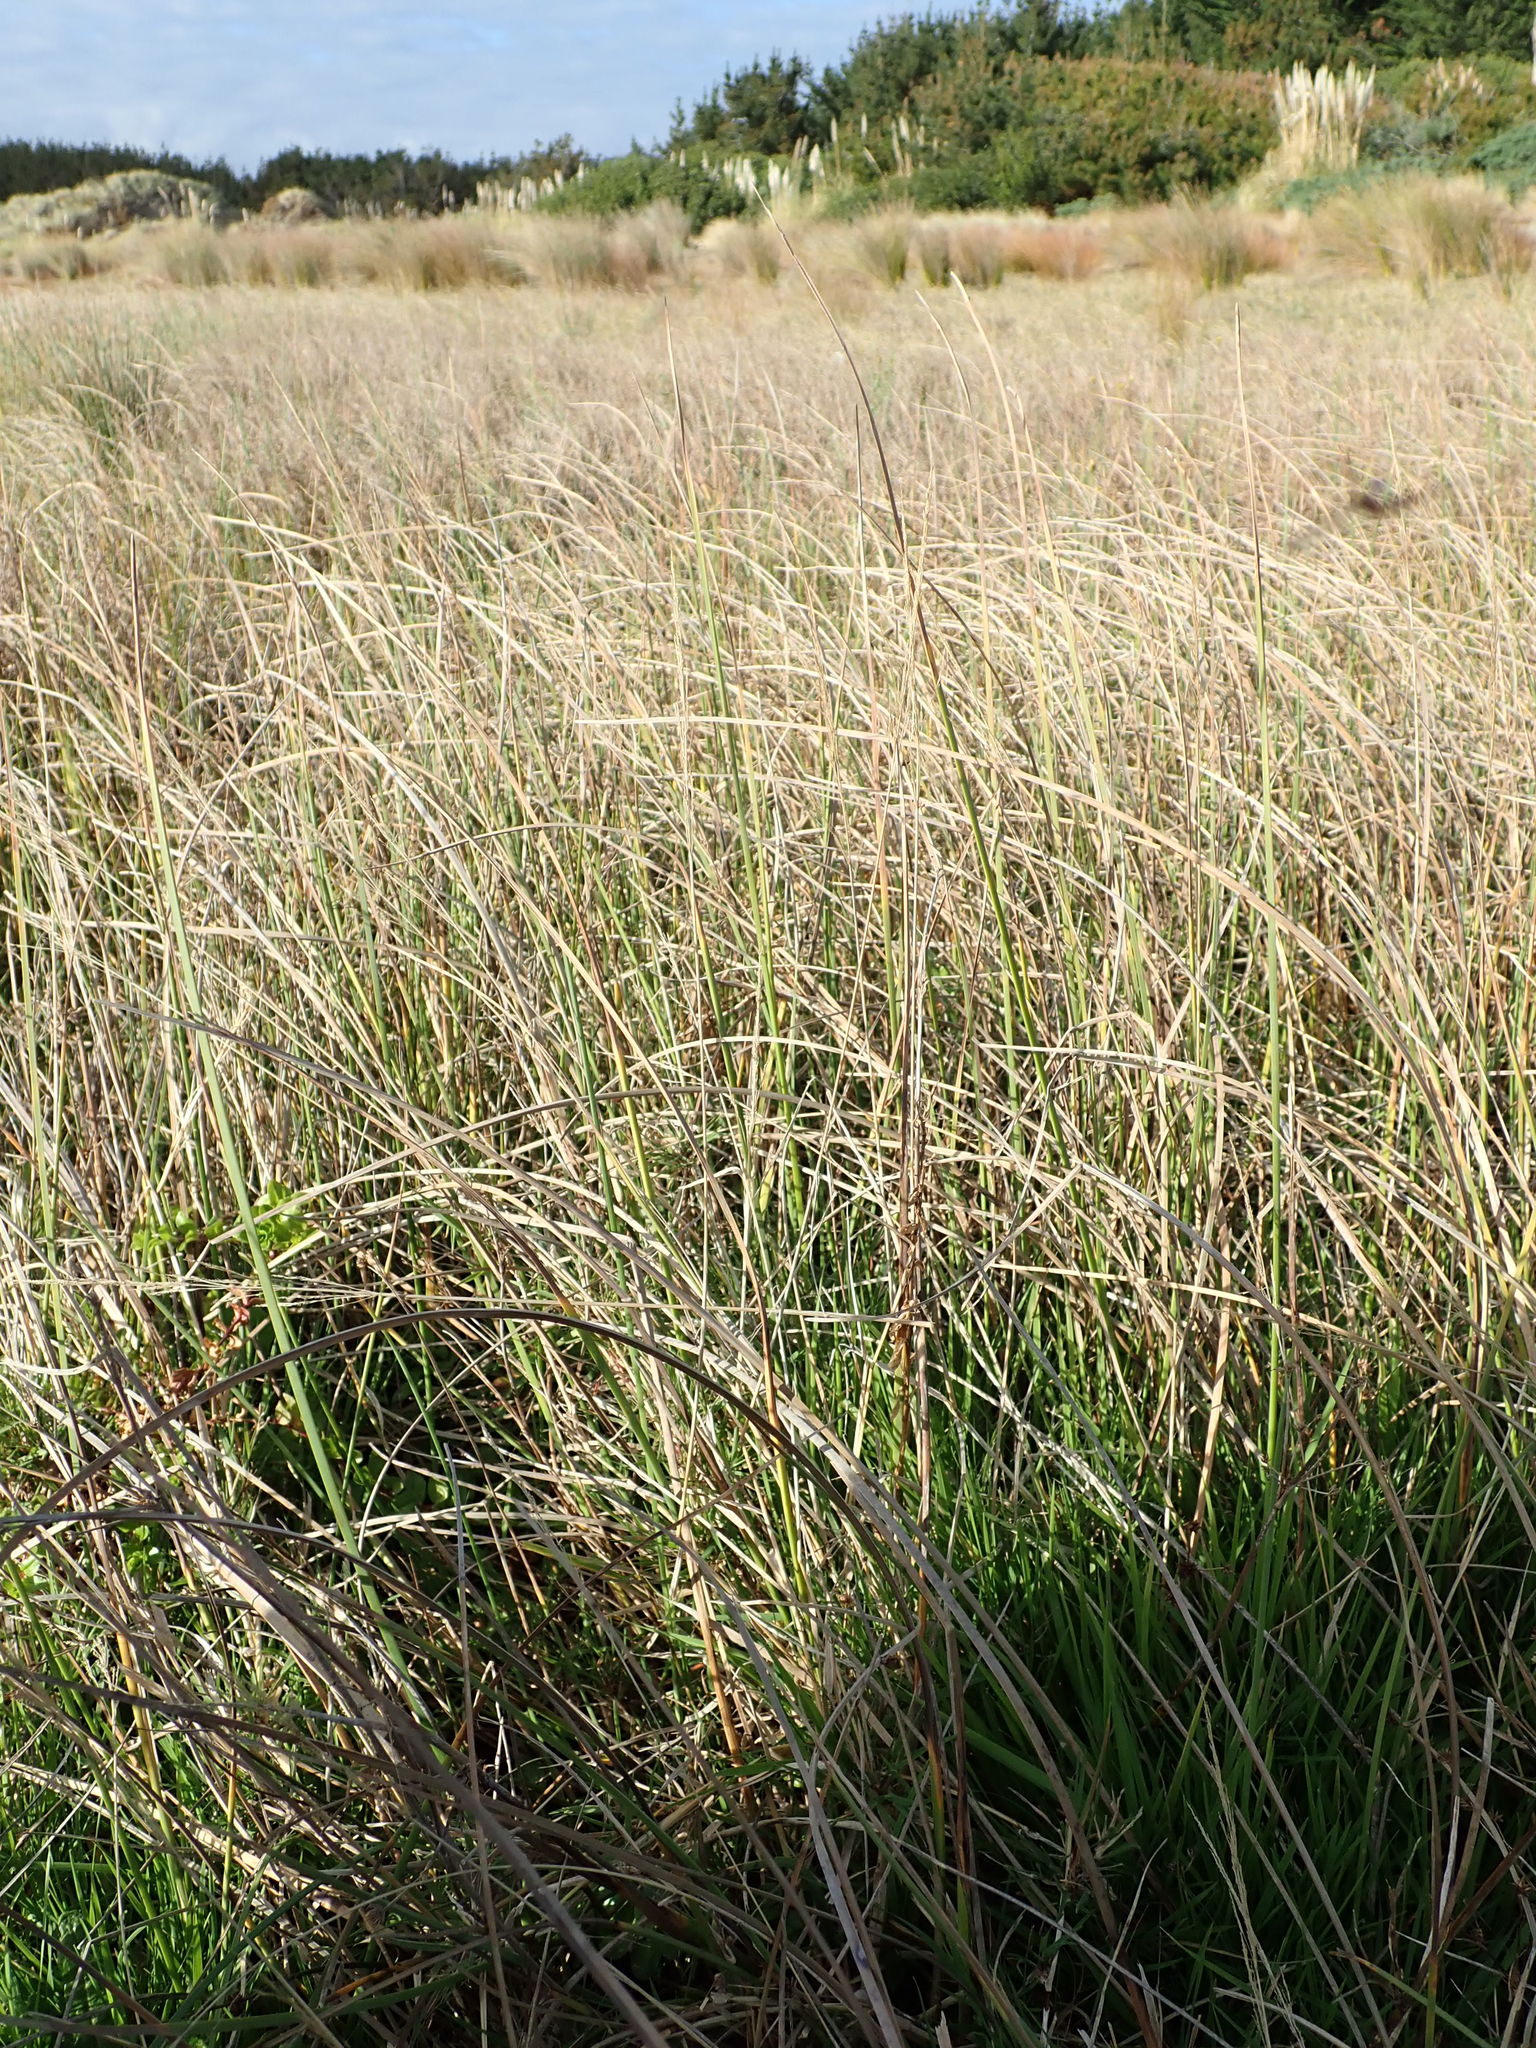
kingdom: Plantae
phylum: Tracheophyta
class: Liliopsida
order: Poales
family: Cyperaceae
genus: Schoenoplectus
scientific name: Schoenoplectus pungens
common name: Sharp club-rush
